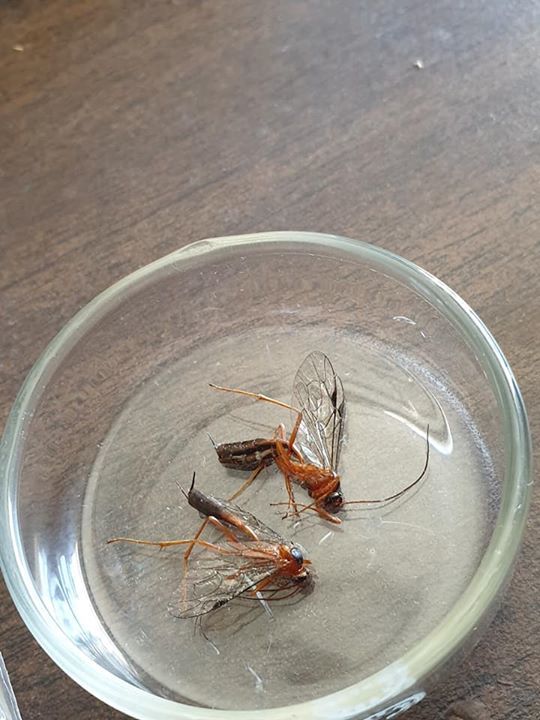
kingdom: Animalia
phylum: Arthropoda
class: Insecta
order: Hymenoptera
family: Ichneumonidae
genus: Netelia
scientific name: Netelia ephippiata
